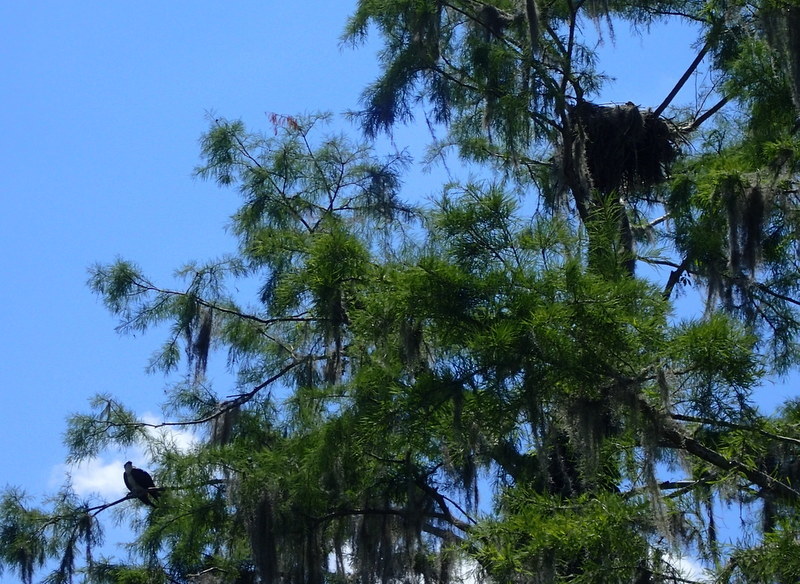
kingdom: Animalia
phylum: Chordata
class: Aves
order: Accipitriformes
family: Pandionidae
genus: Pandion
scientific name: Pandion haliaetus
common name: Osprey
